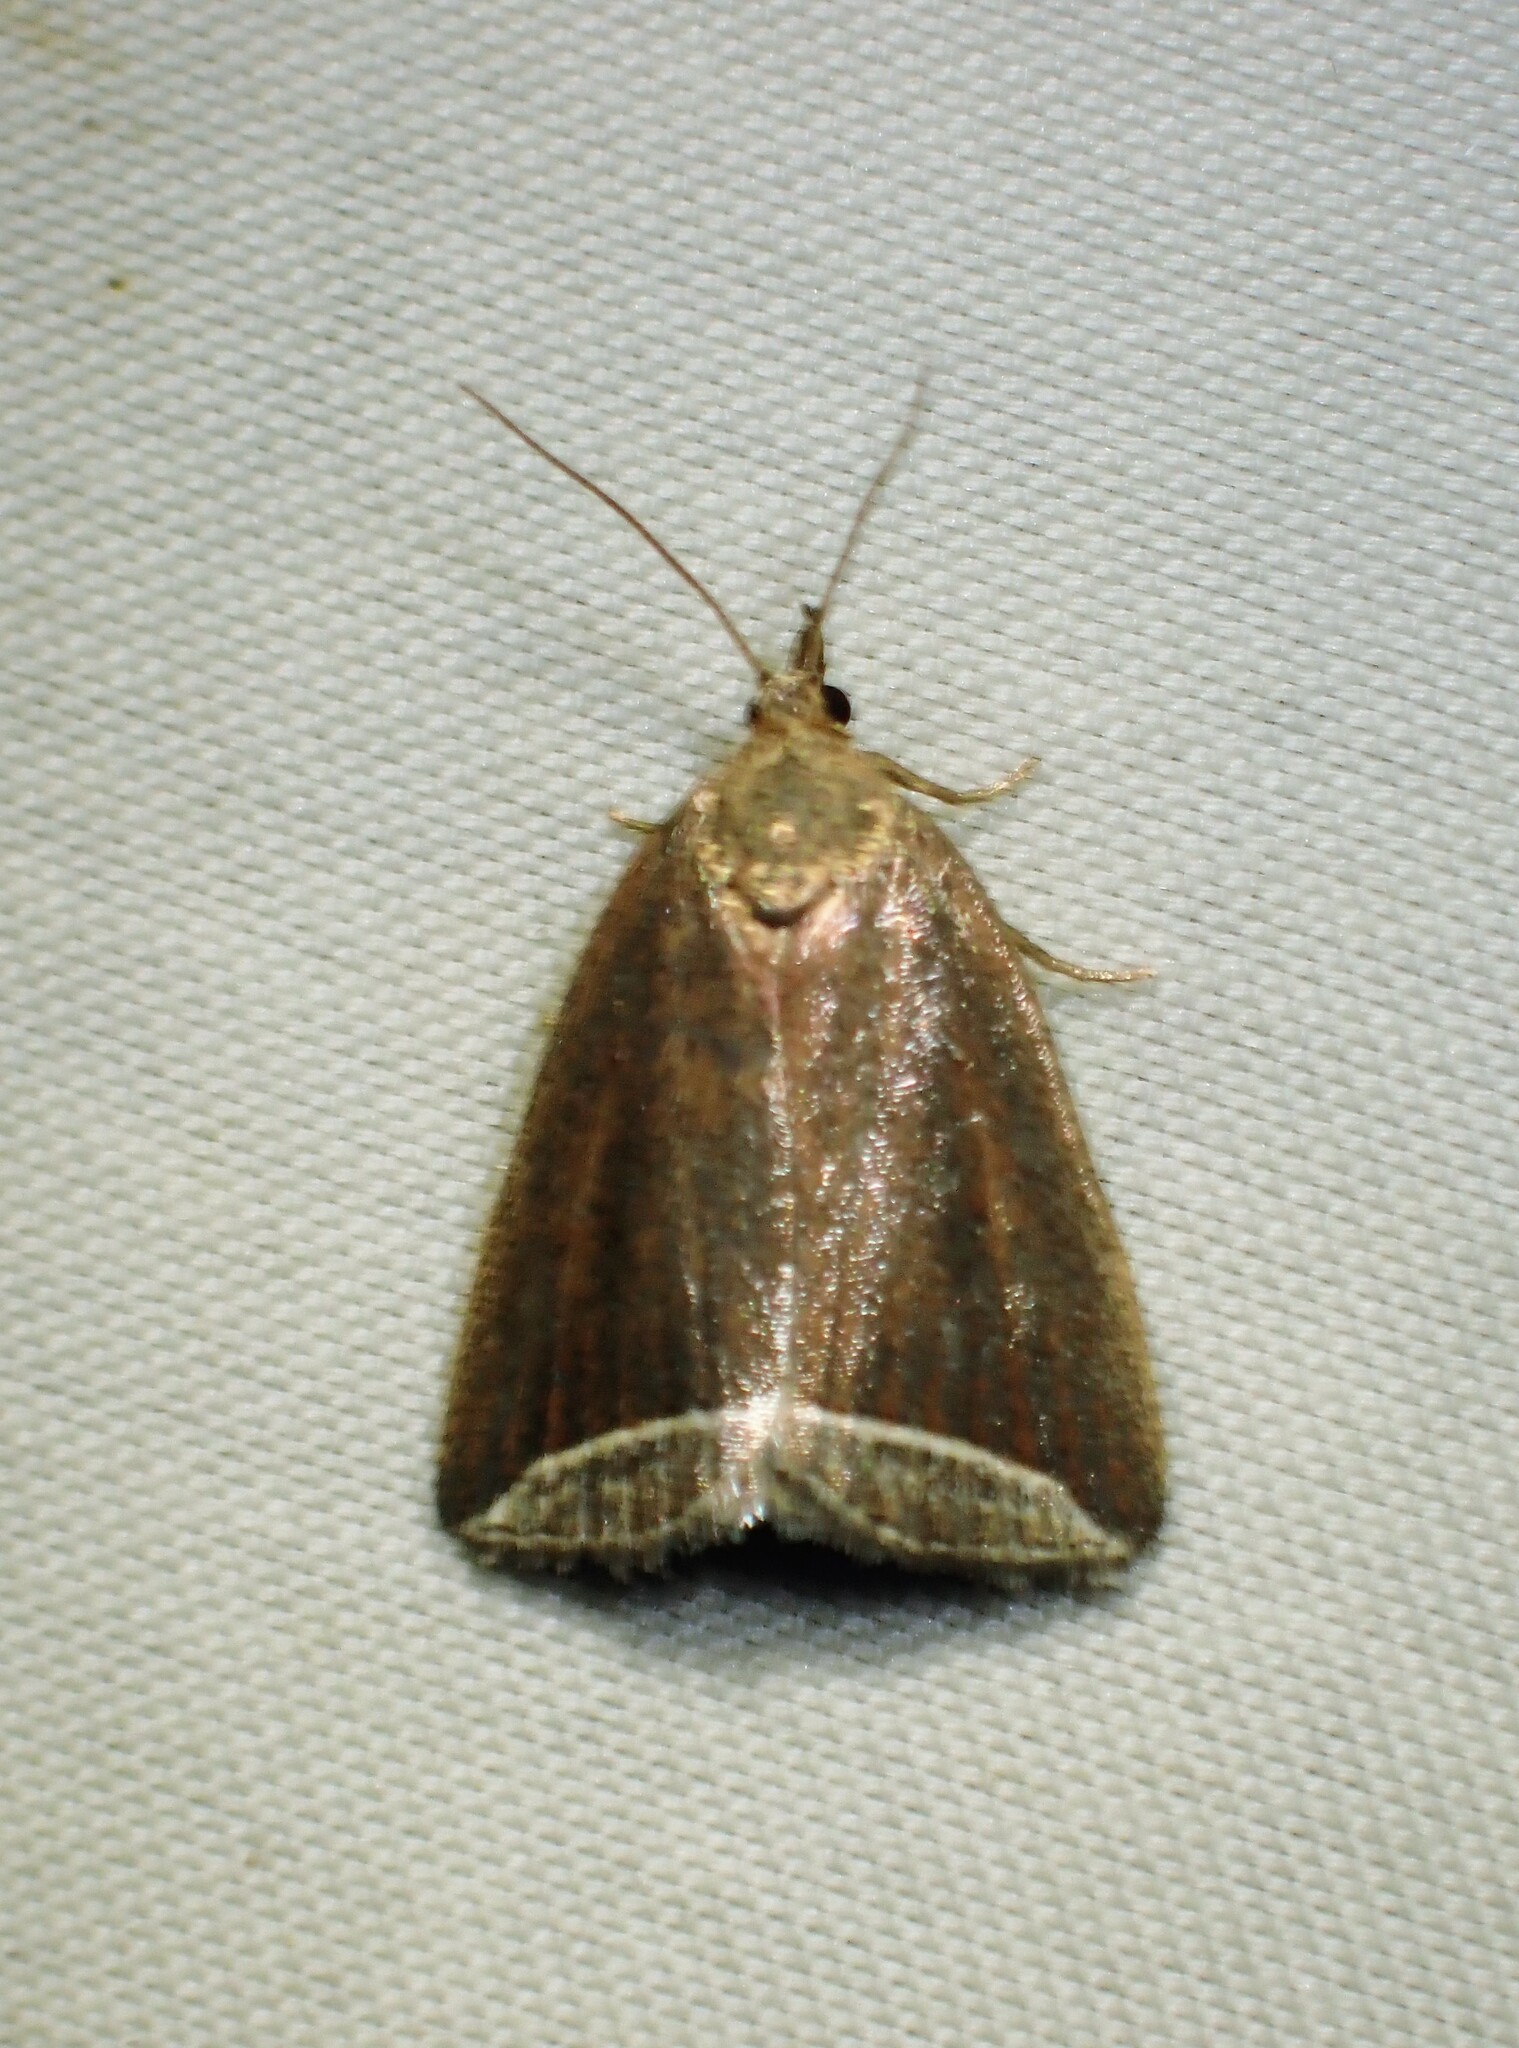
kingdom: Animalia
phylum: Arthropoda
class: Insecta
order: Lepidoptera
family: Erebidae
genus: Capis
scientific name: Capis curvata
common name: Curved halter moth
